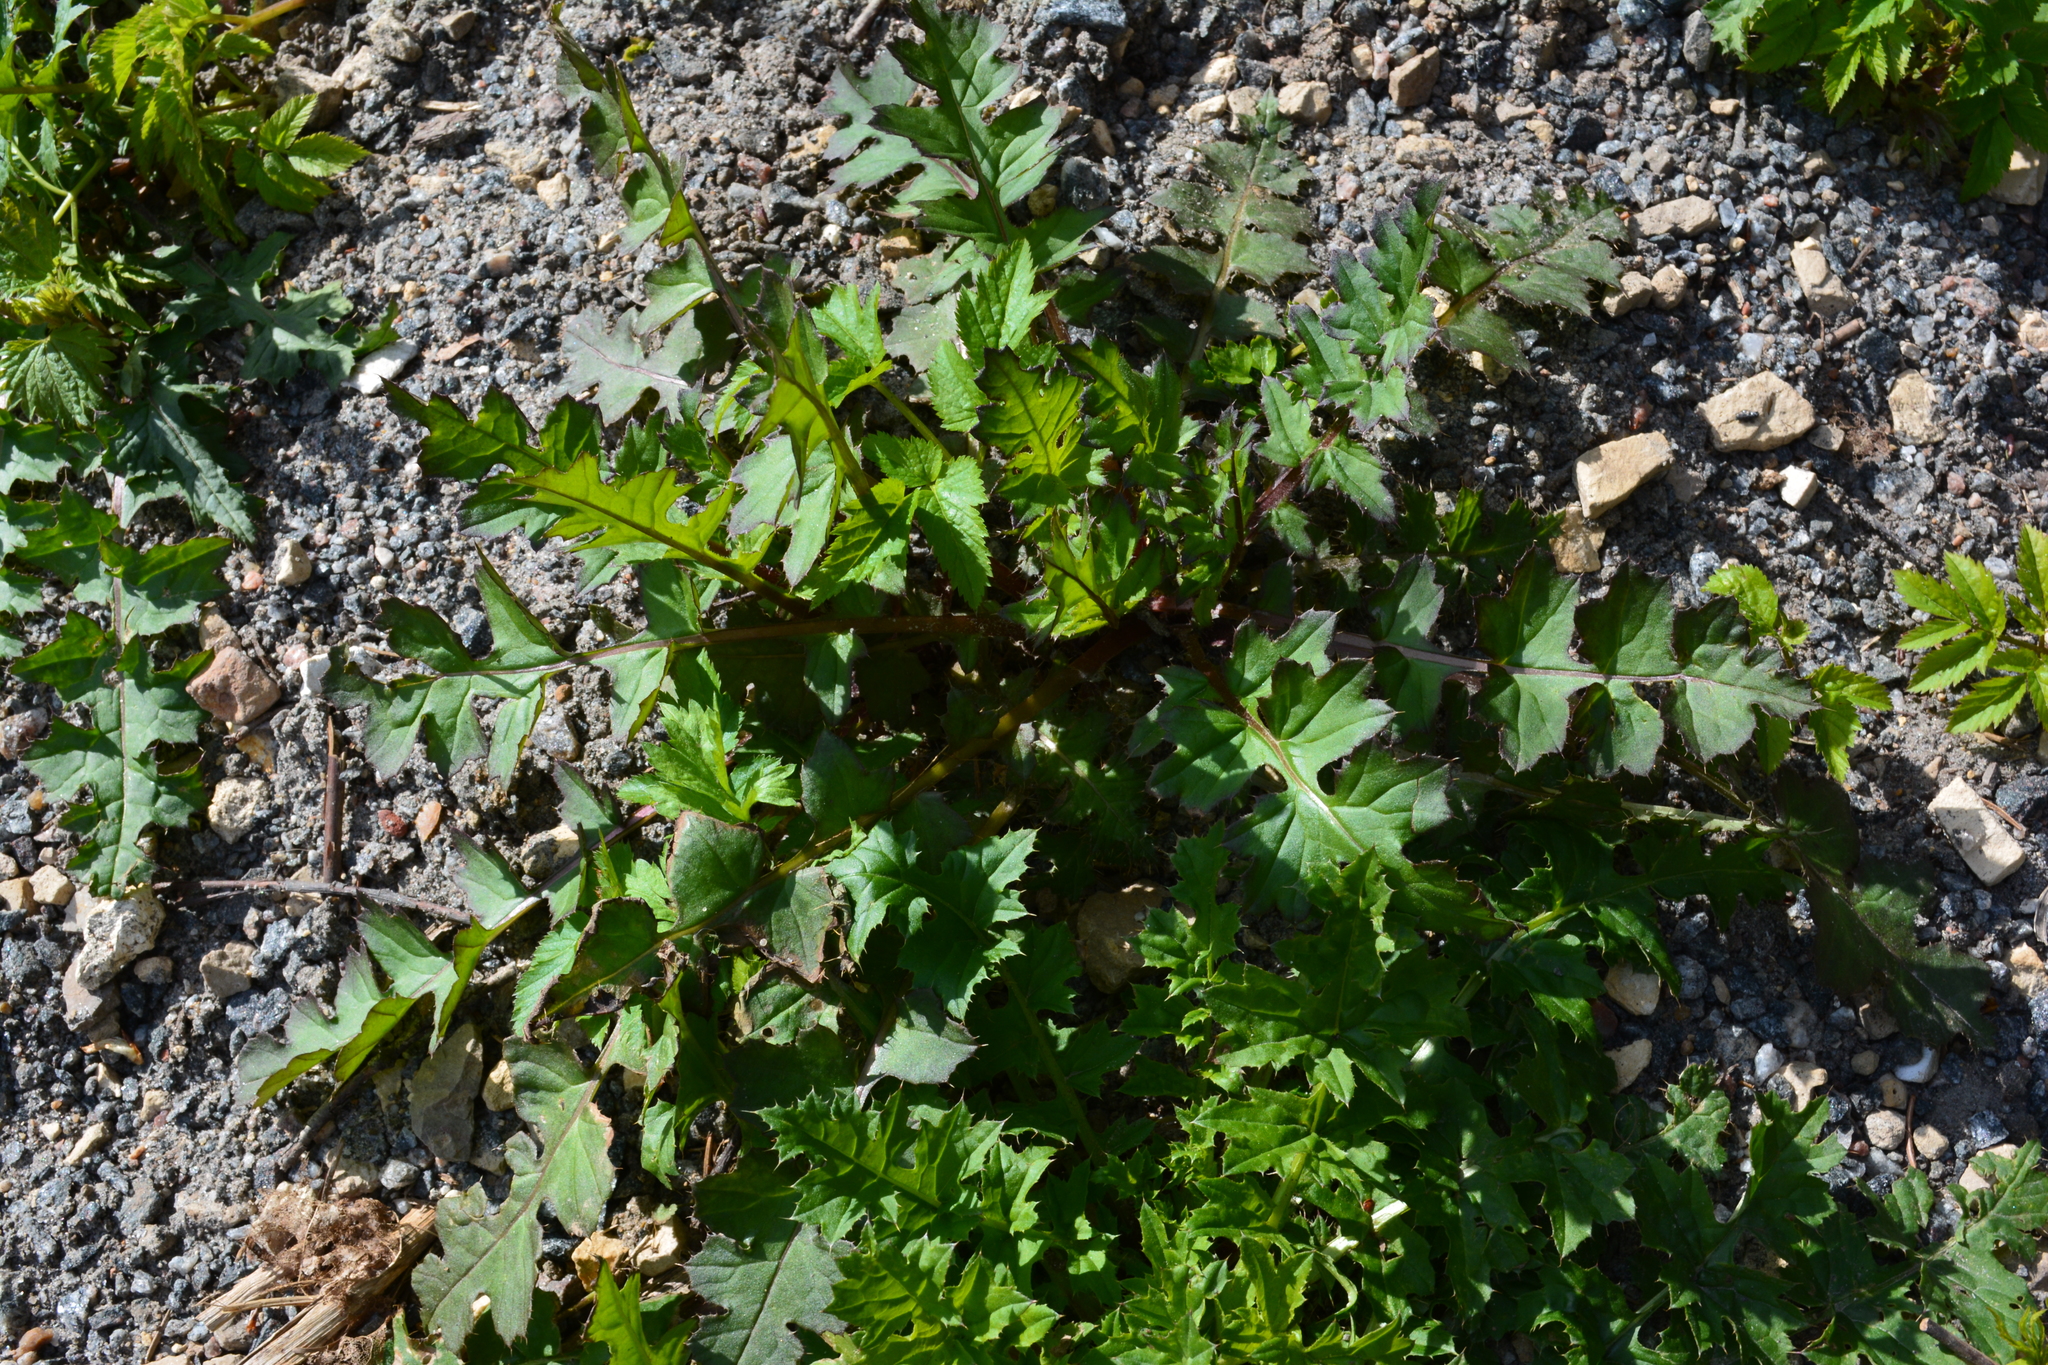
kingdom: Plantae
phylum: Tracheophyta
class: Magnoliopsida
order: Asterales
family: Asteraceae
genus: Carduus
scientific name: Carduus crispus
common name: Welted thistle
